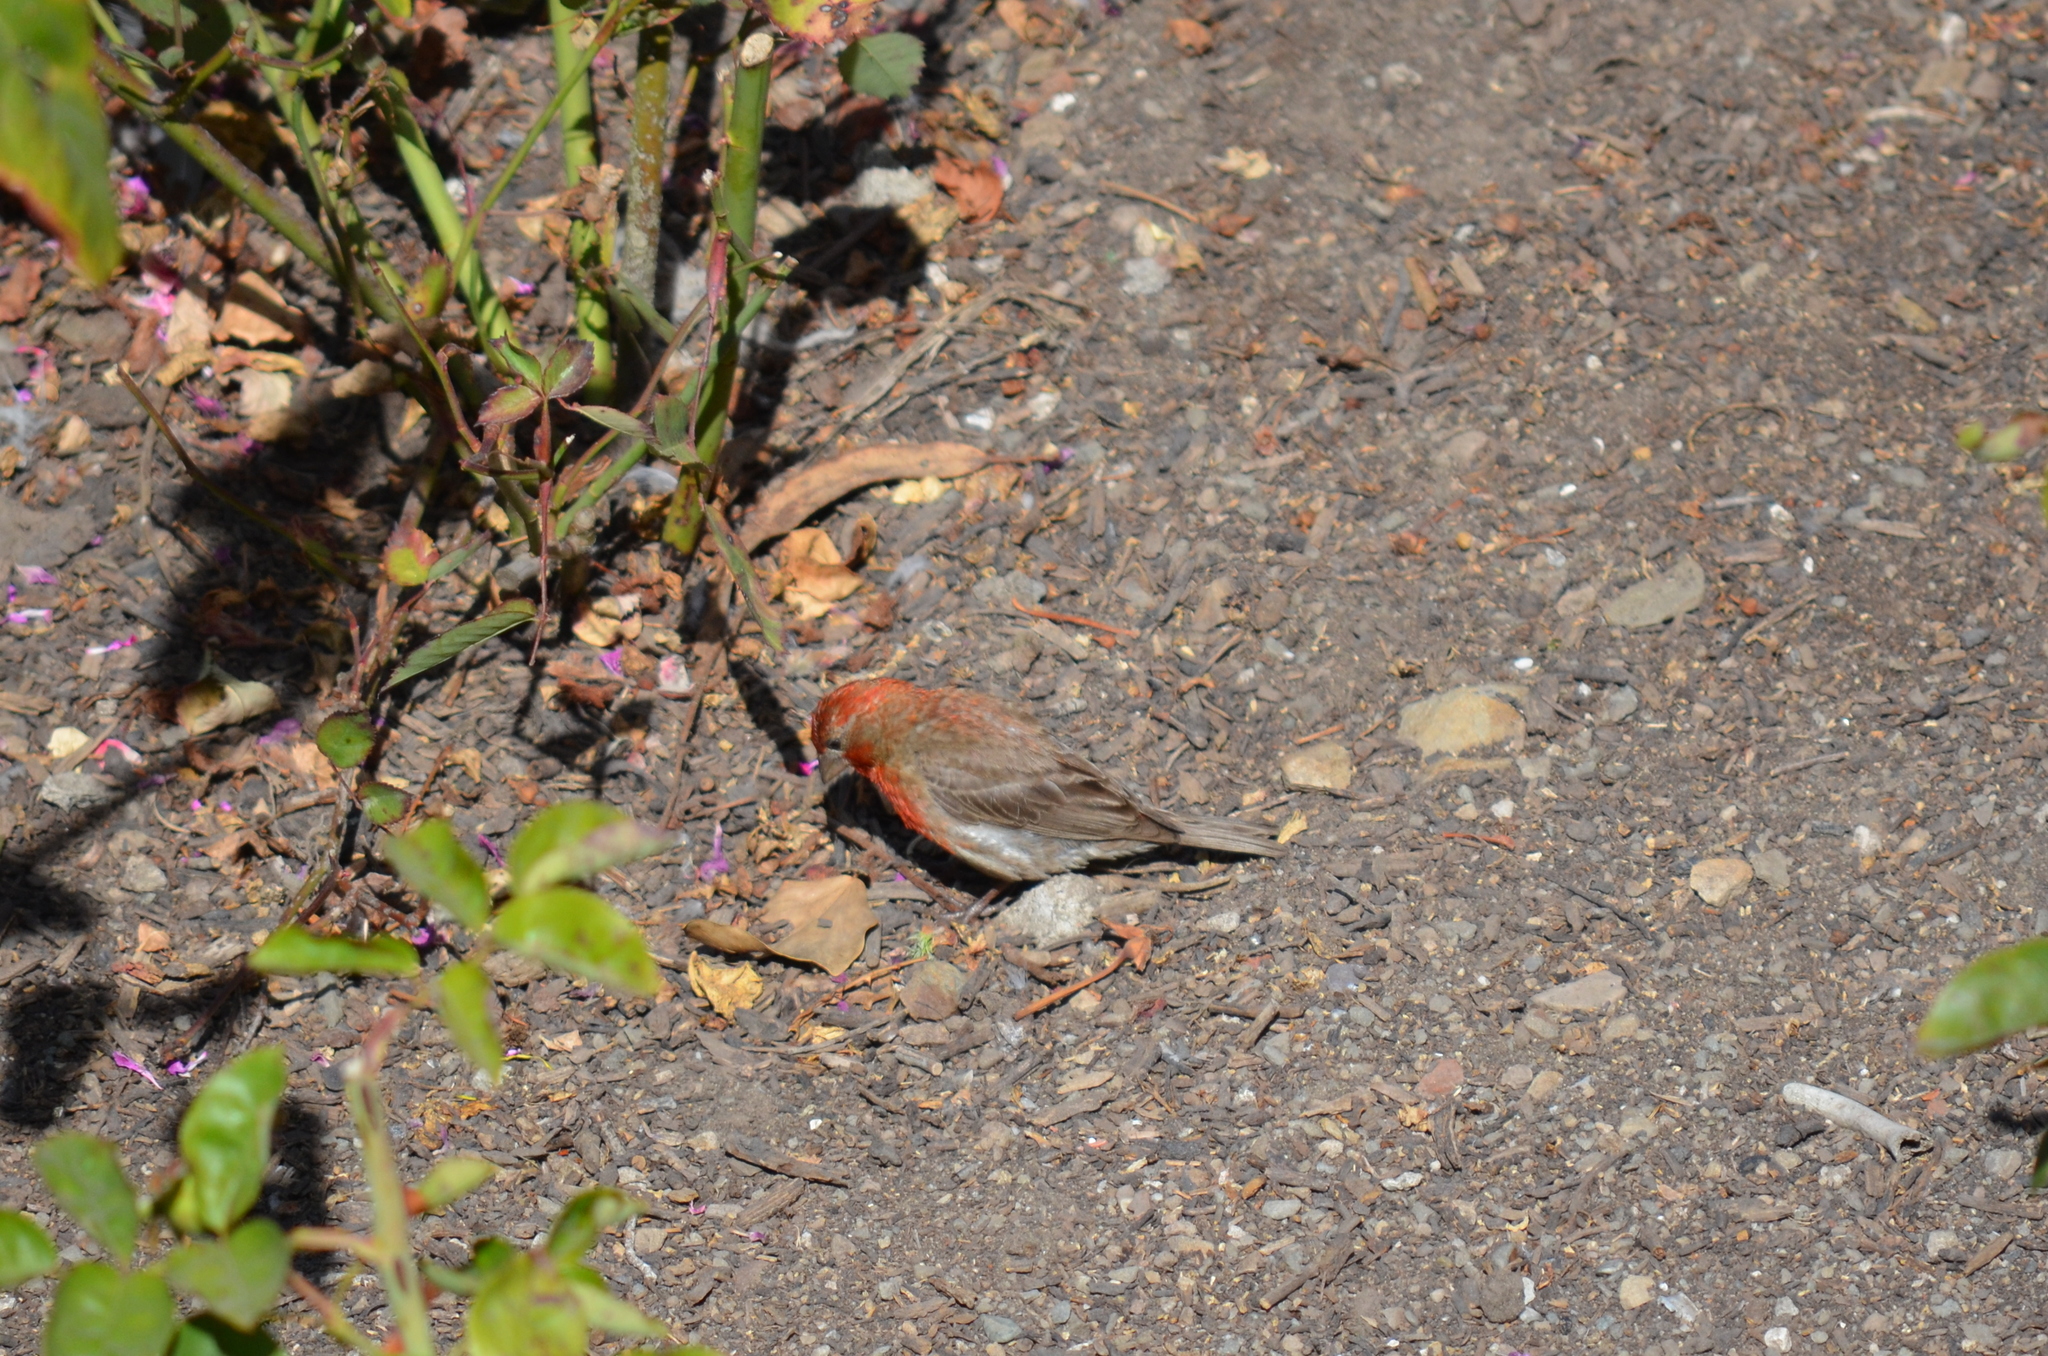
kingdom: Animalia
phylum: Chordata
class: Aves
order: Passeriformes
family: Fringillidae
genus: Haemorhous
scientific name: Haemorhous mexicanus
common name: House finch
